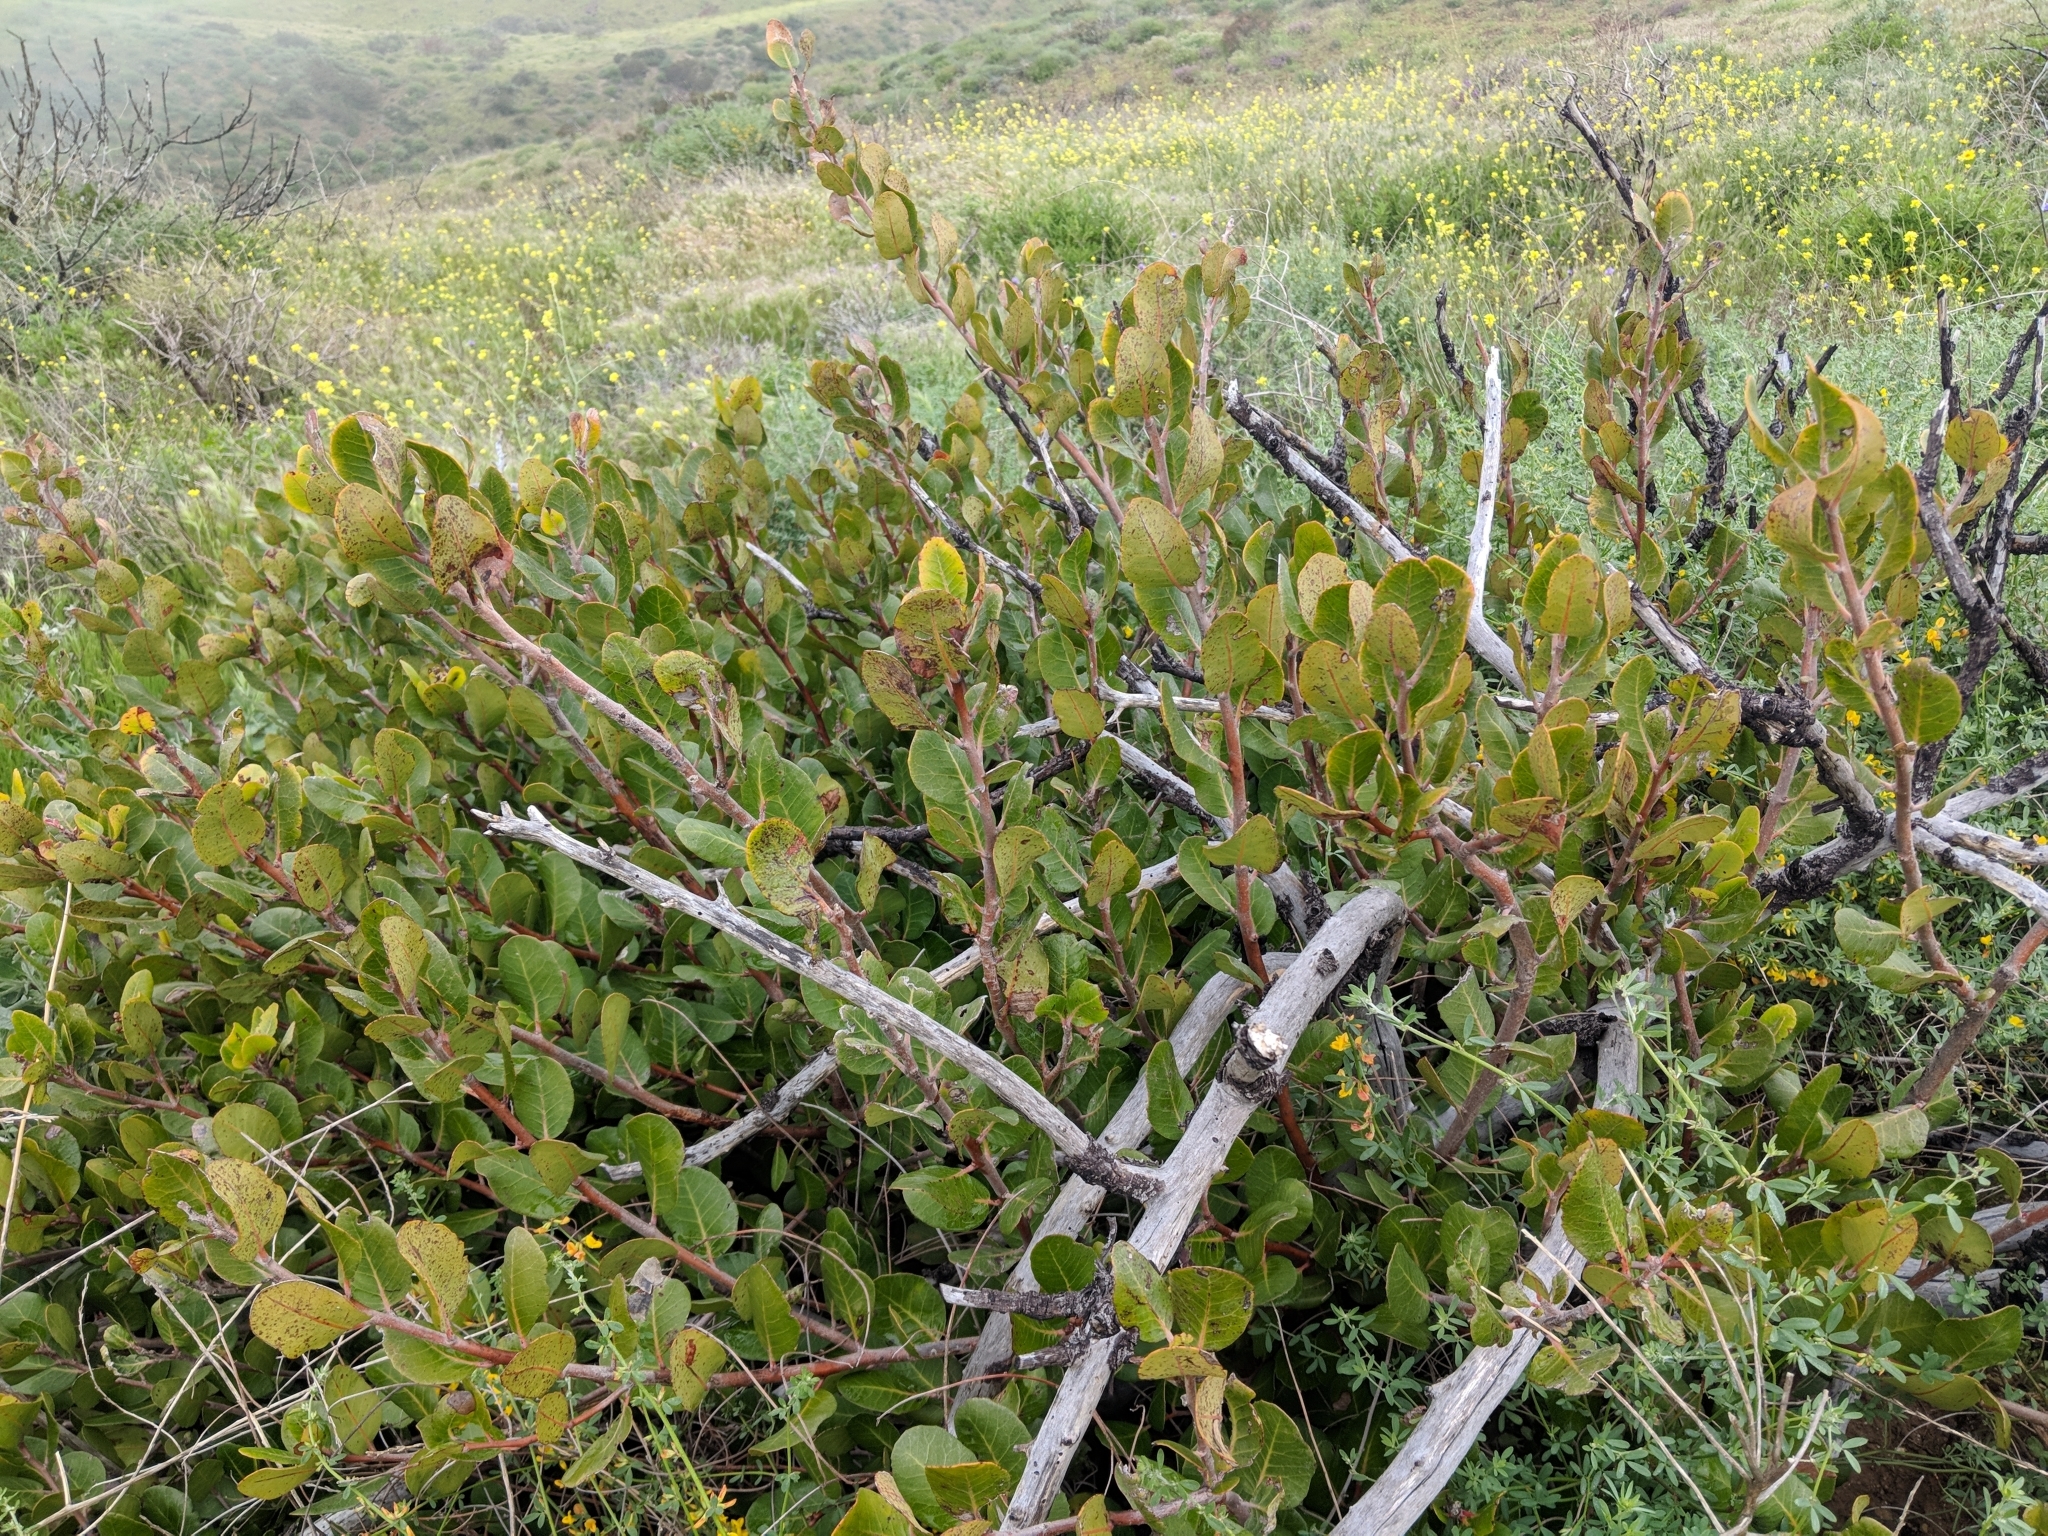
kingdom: Plantae
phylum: Tracheophyta
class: Magnoliopsida
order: Sapindales
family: Anacardiaceae
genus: Rhus
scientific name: Rhus integrifolia
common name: Lemonade sumac
